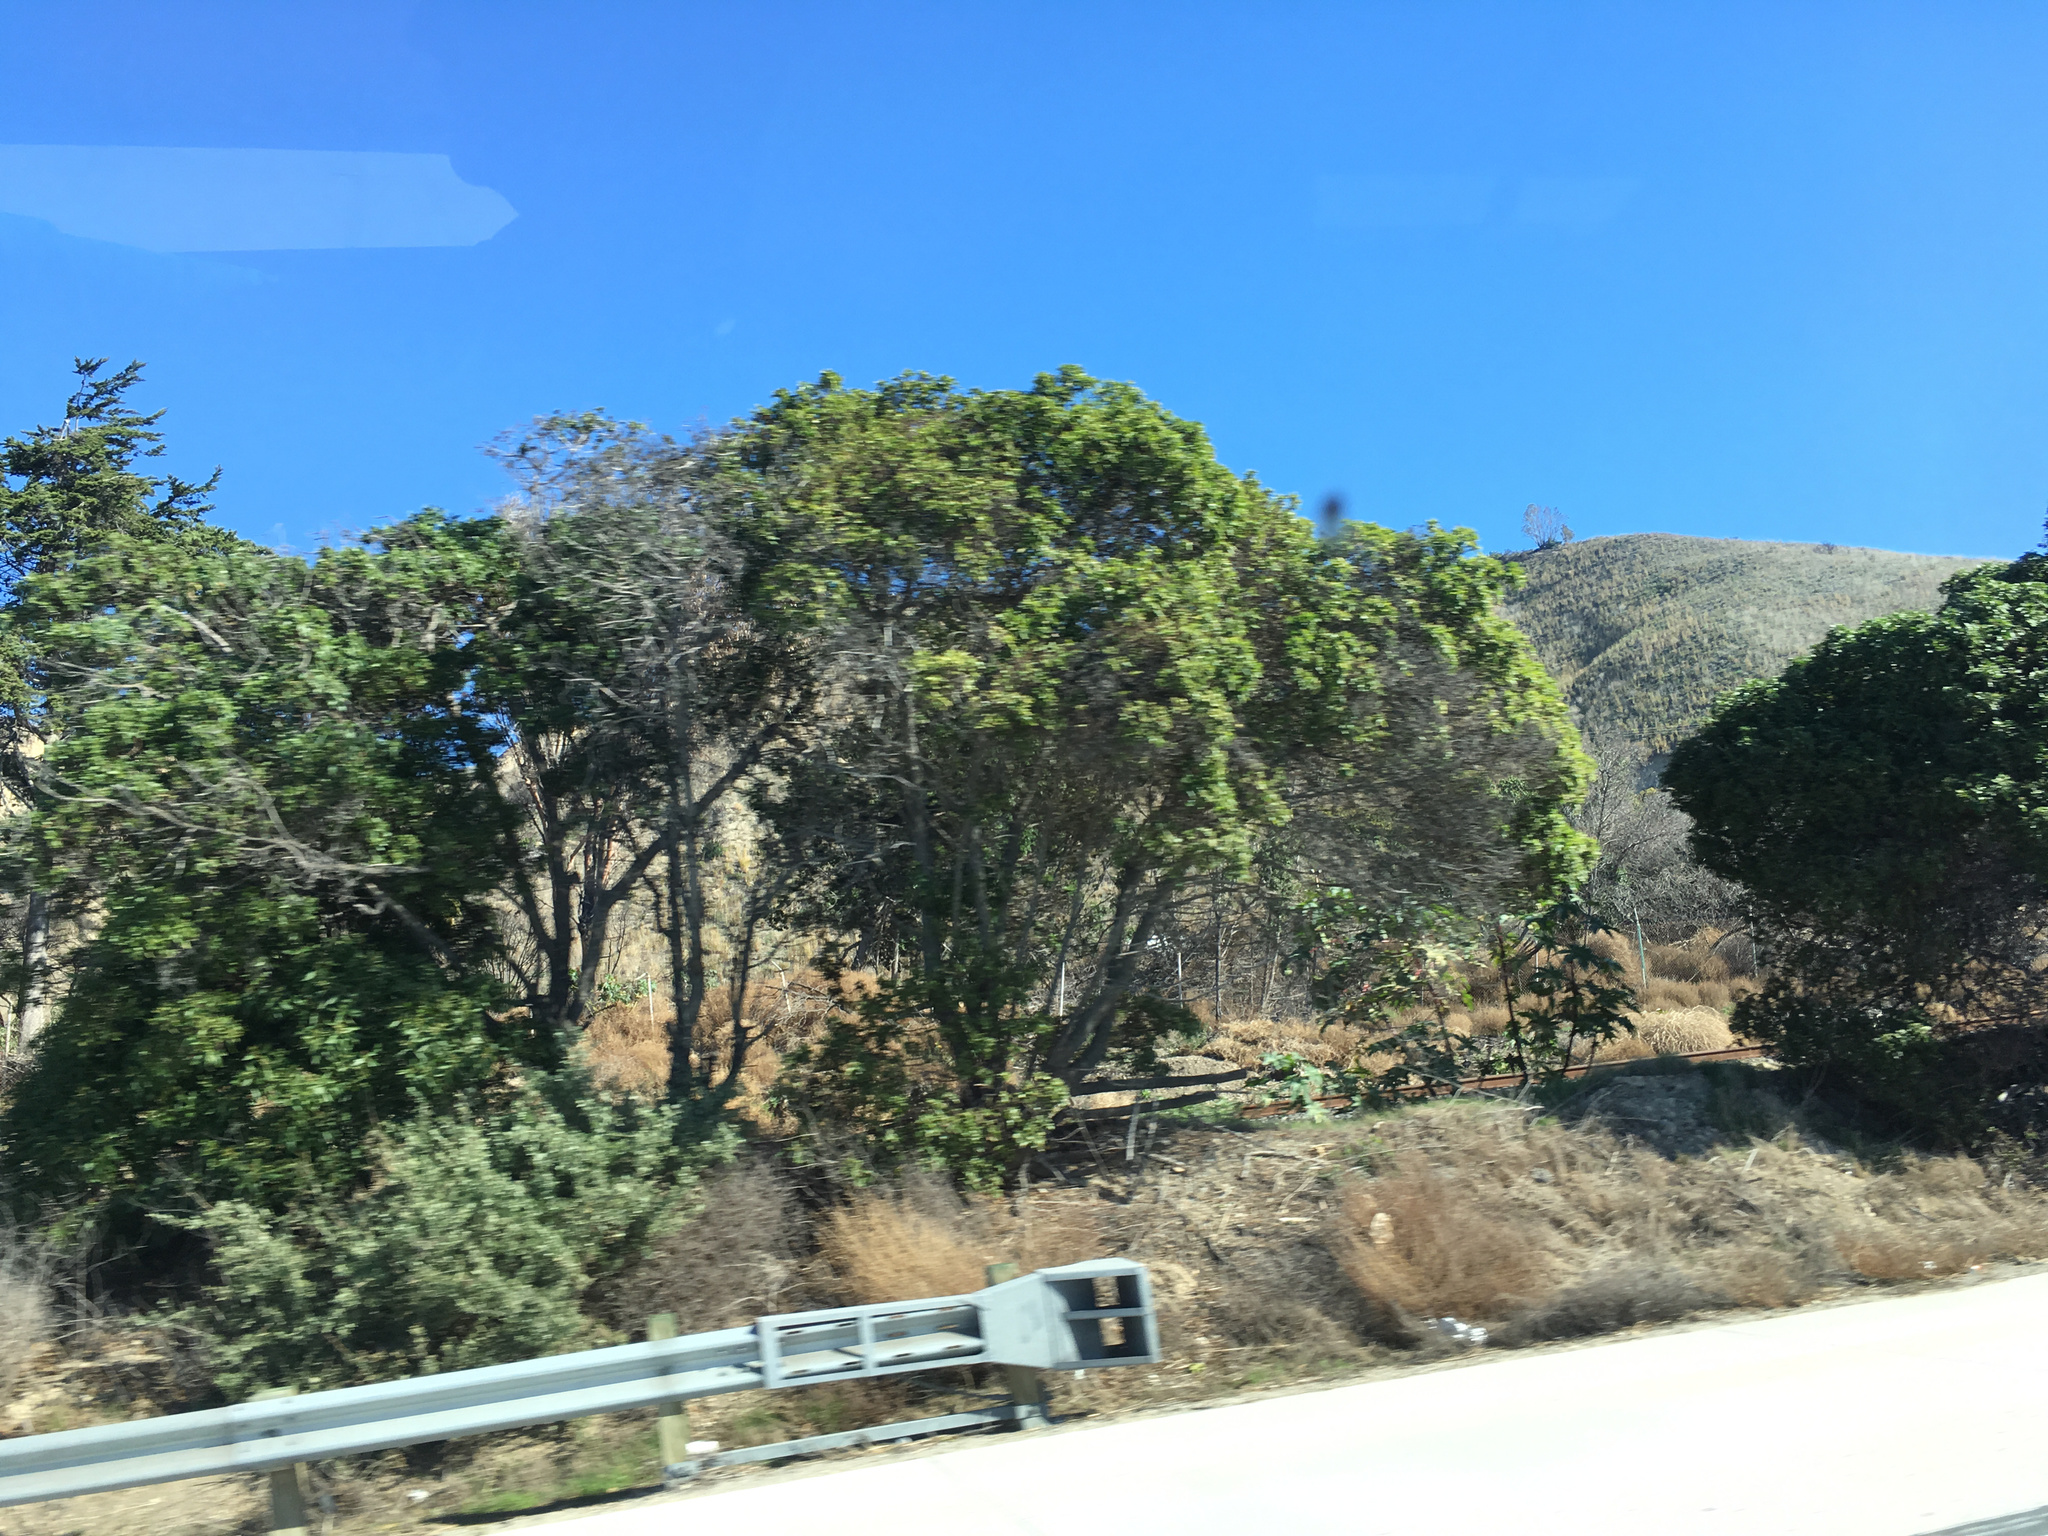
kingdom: Plantae
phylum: Tracheophyta
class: Magnoliopsida
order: Lamiales
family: Scrophulariaceae
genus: Myoporum
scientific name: Myoporum laetum
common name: Ngaio tree
